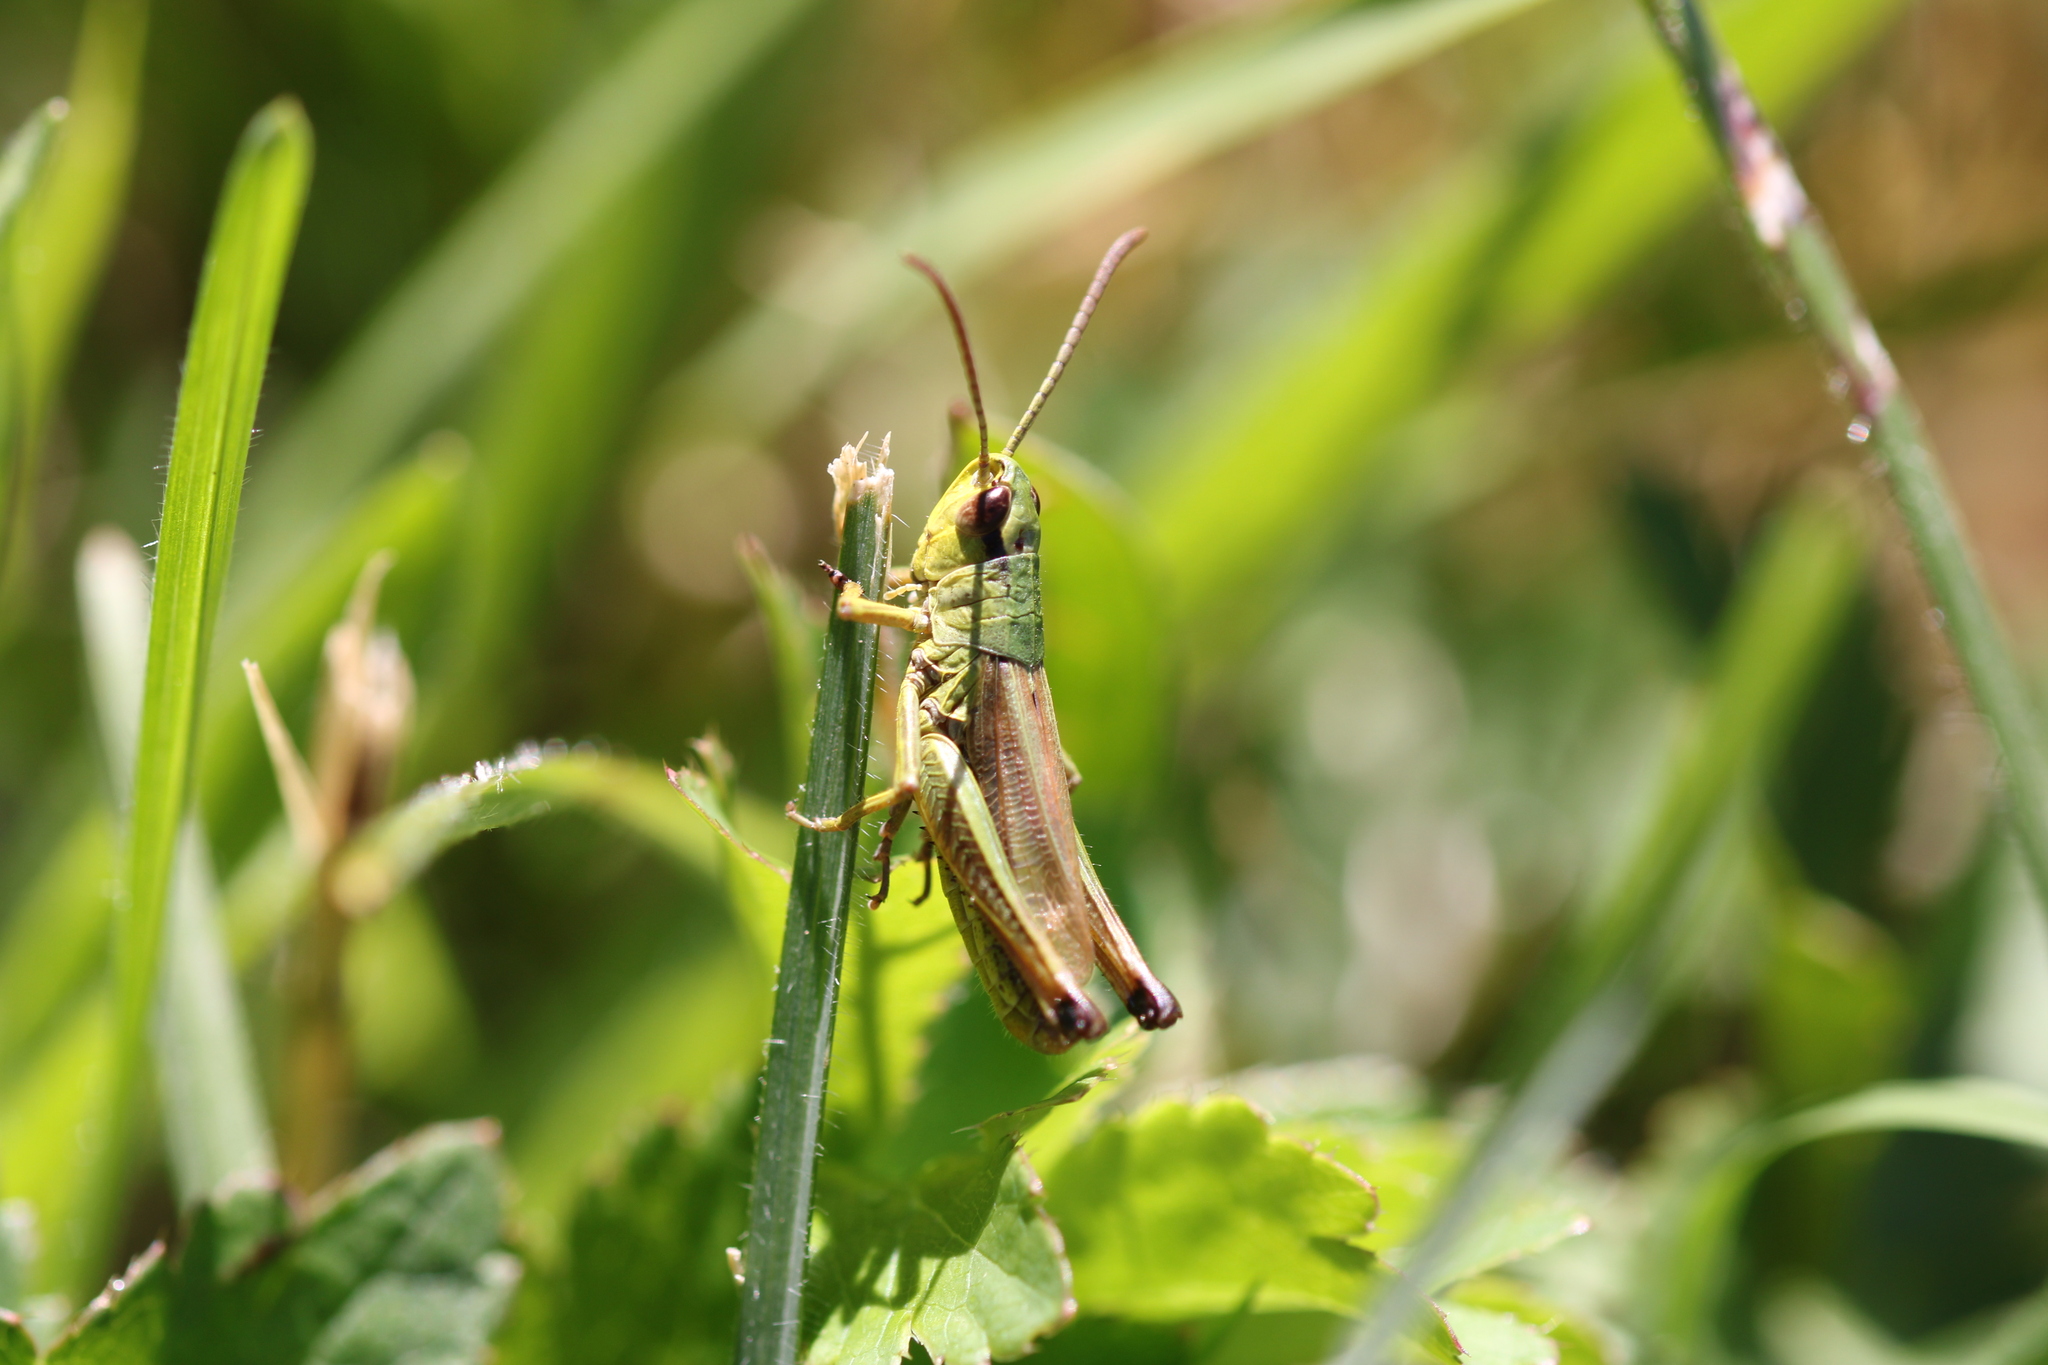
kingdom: Animalia
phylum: Arthropoda
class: Insecta
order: Orthoptera
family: Acrididae
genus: Pseudochorthippus
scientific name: Pseudochorthippus parallelus
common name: Meadow grasshopper
